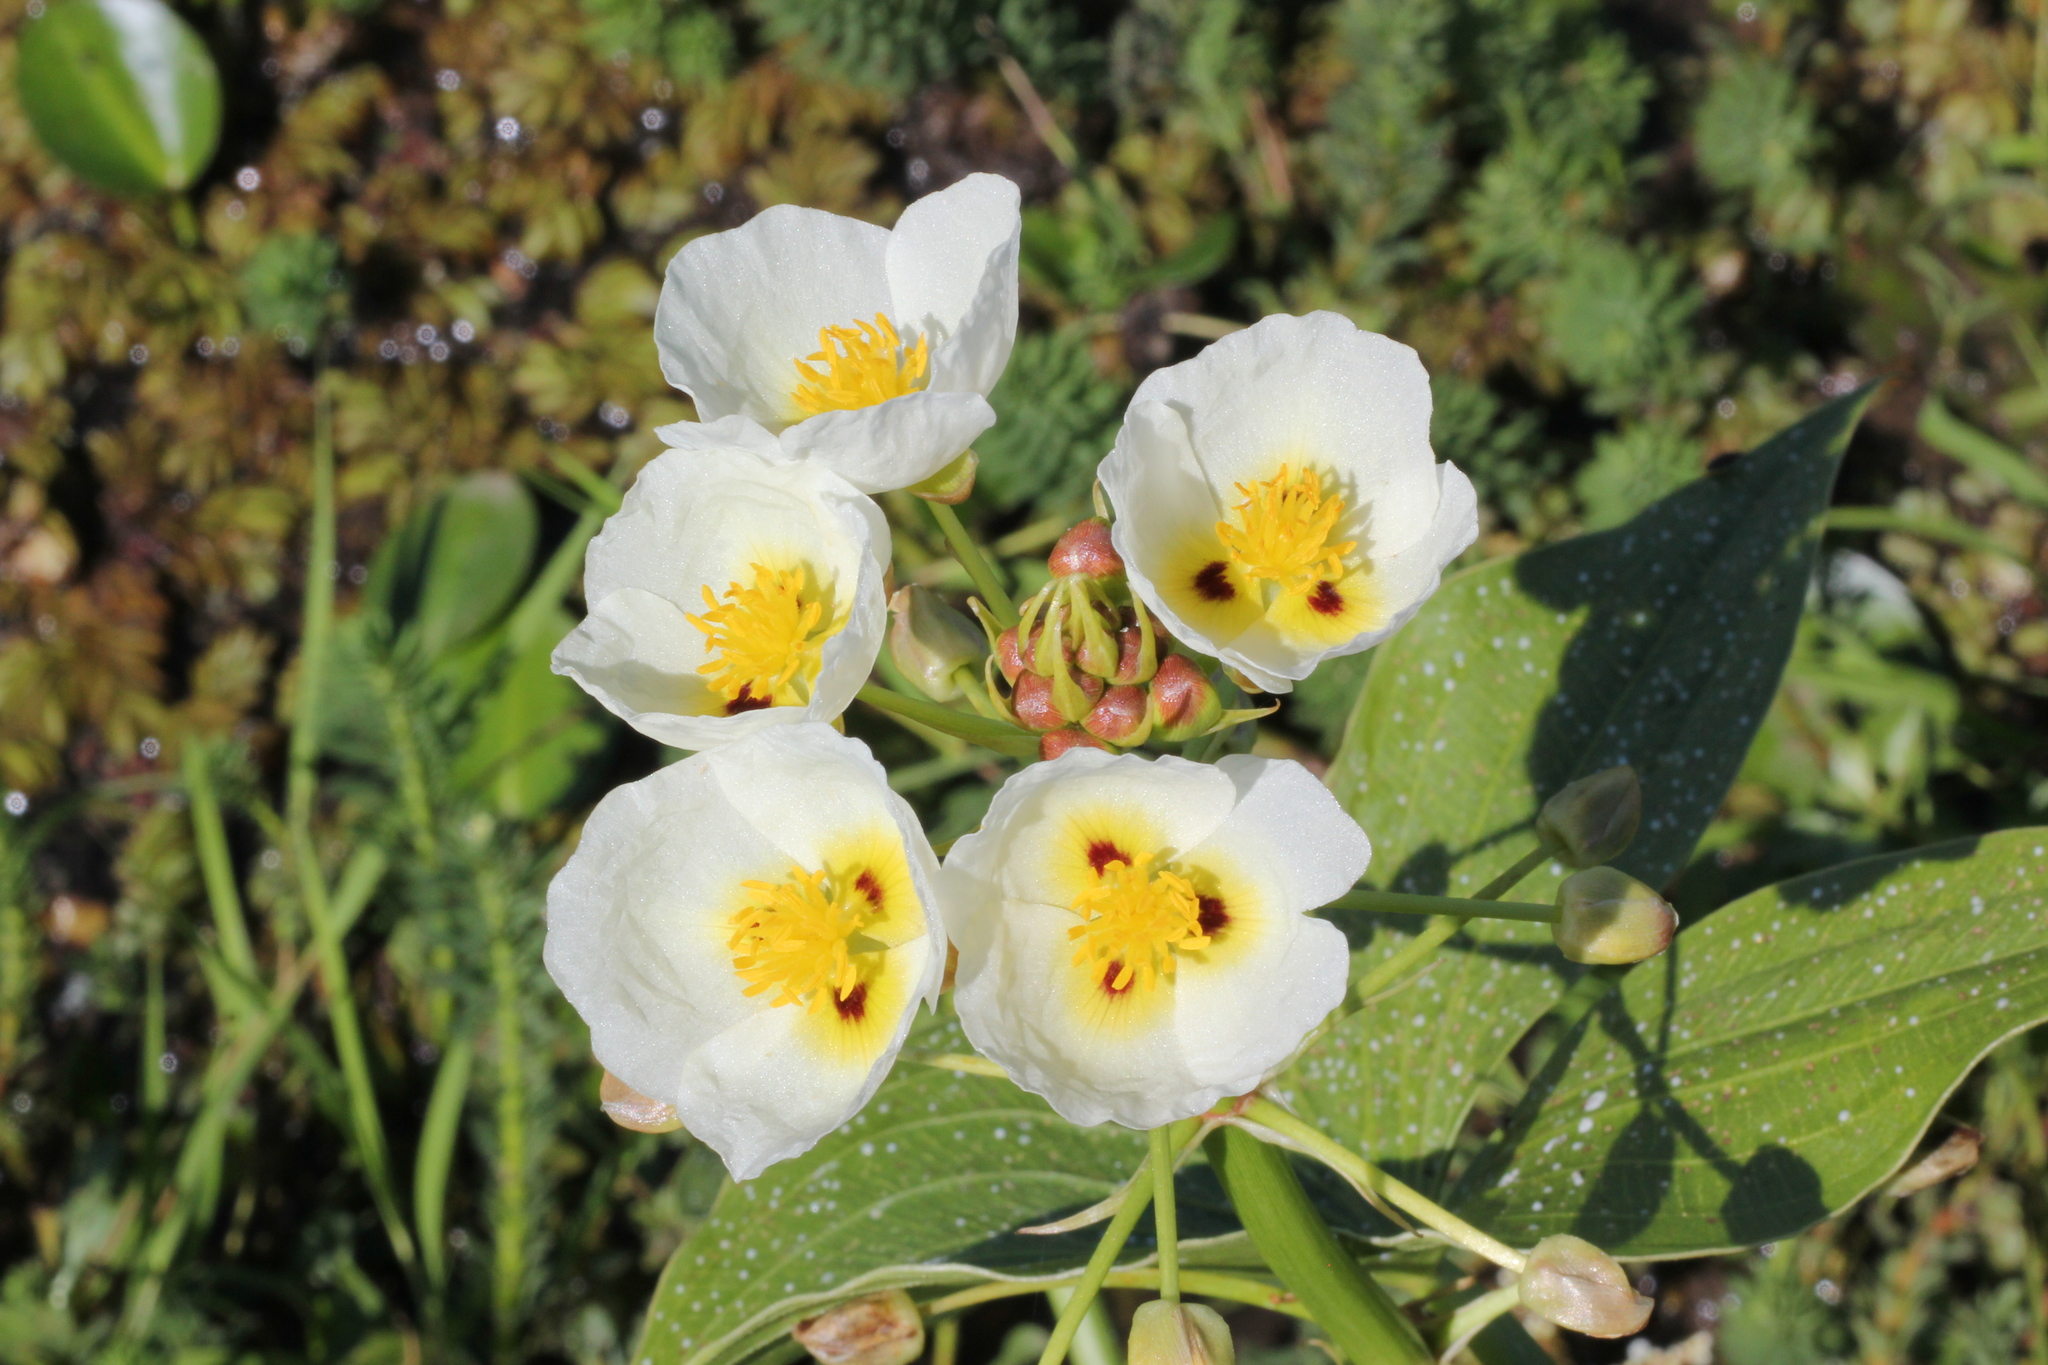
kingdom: Plantae
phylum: Tracheophyta
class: Liliopsida
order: Alismatales
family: Alismataceae
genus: Sagittaria
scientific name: Sagittaria montevidensis
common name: Giant arrowhead
